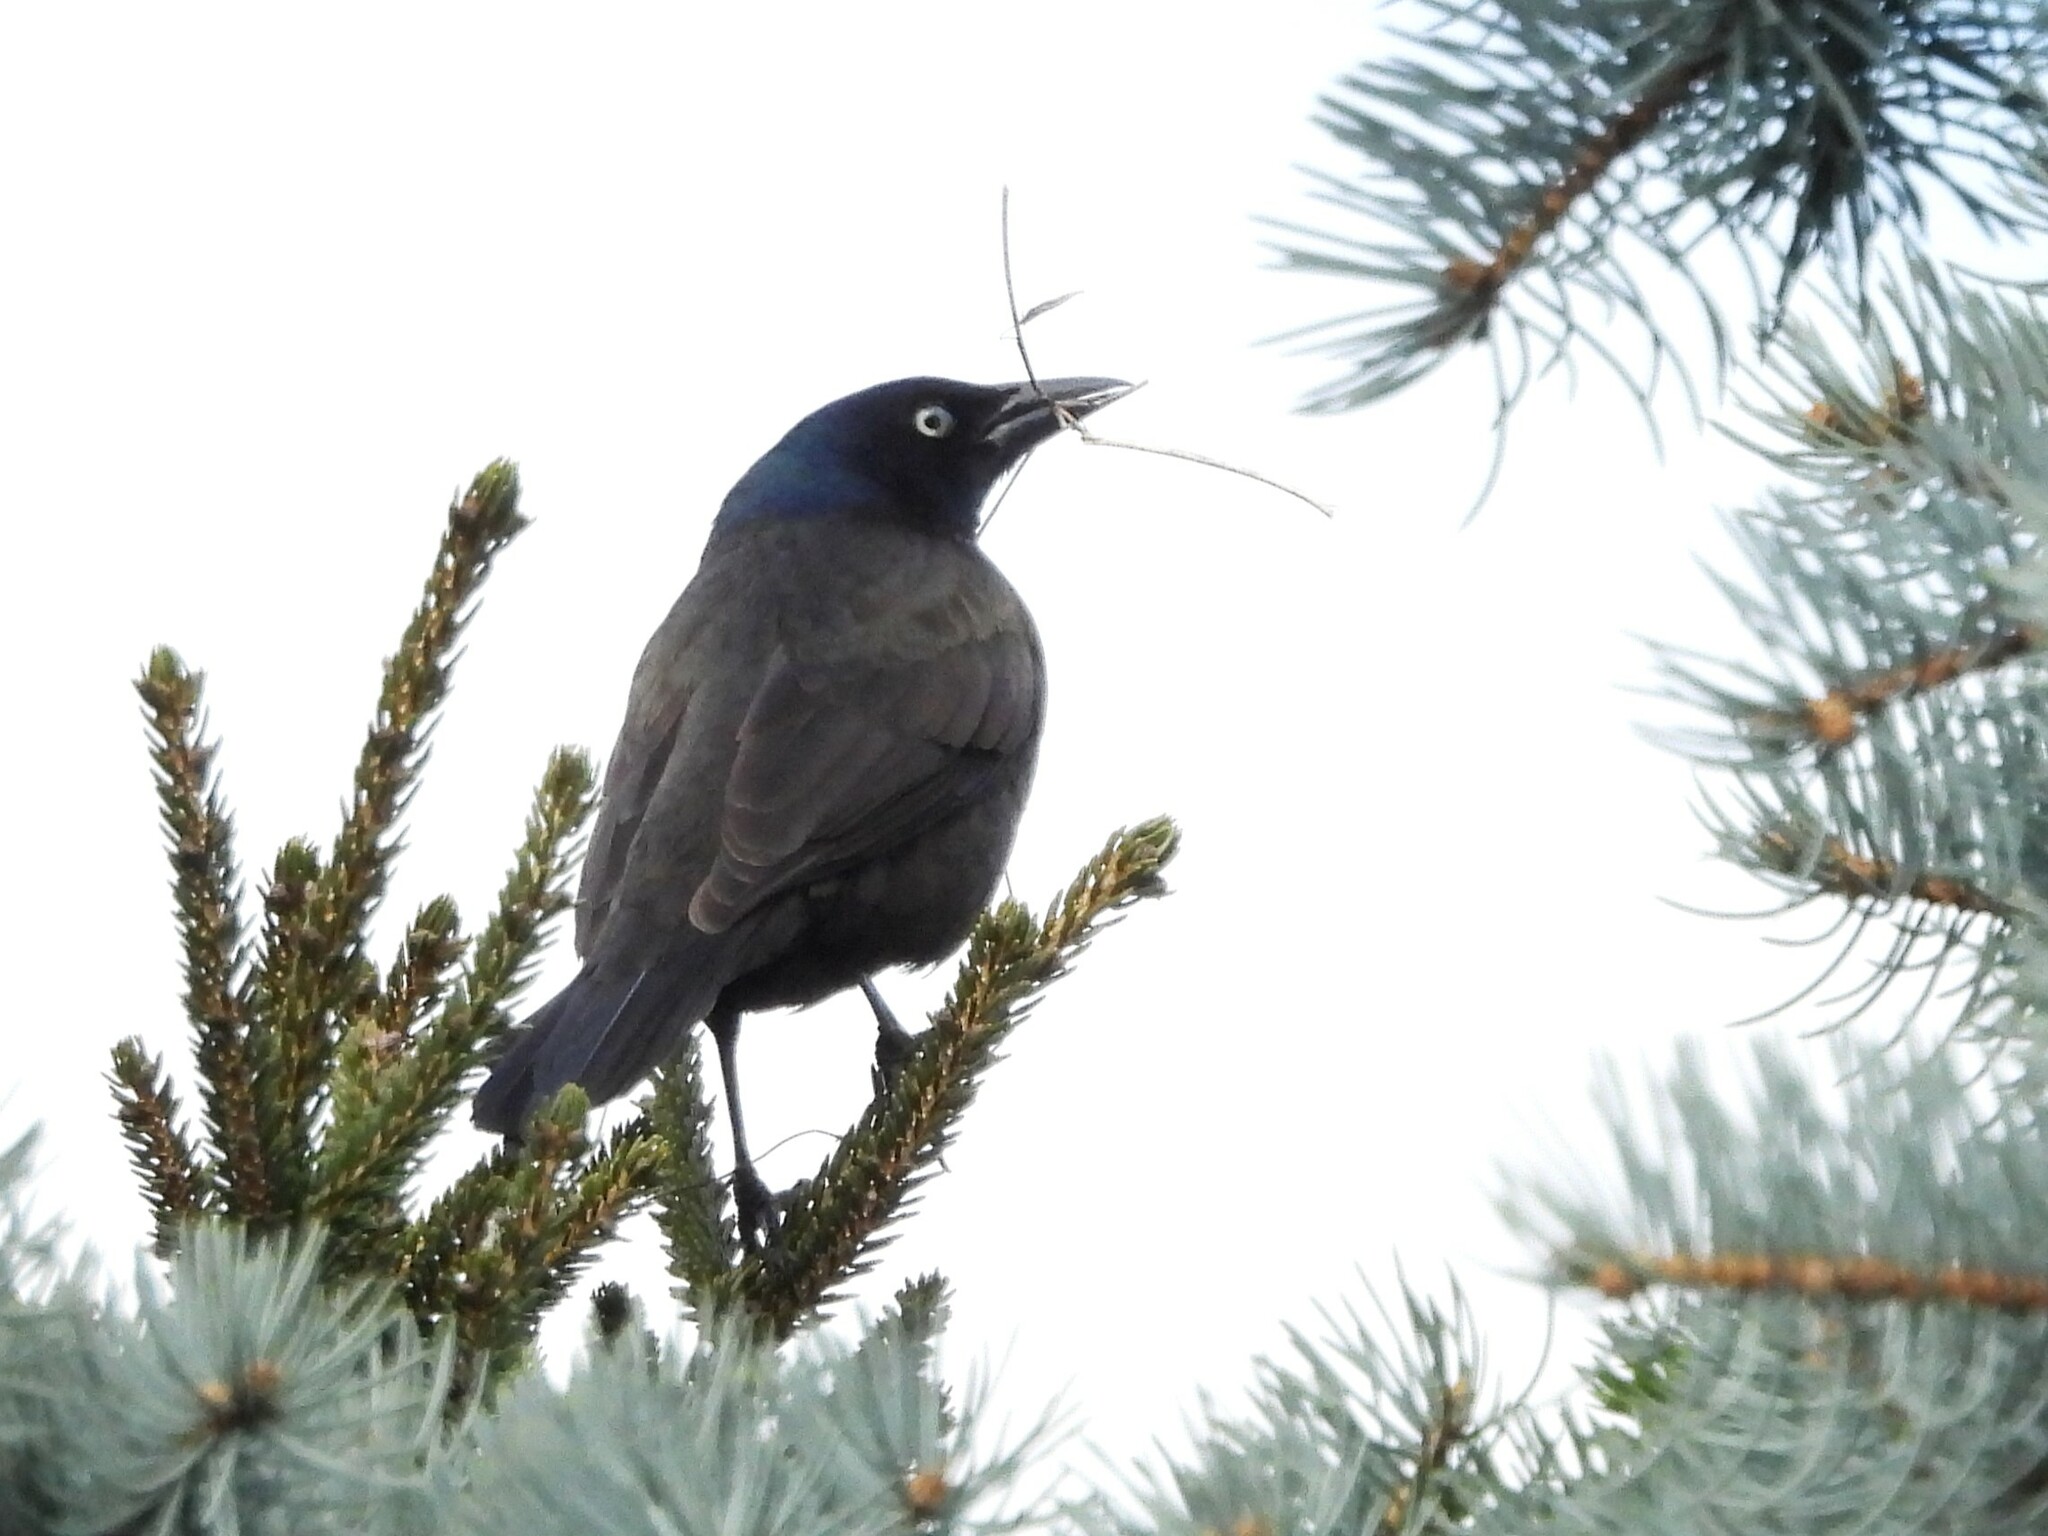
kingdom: Animalia
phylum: Chordata
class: Aves
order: Passeriformes
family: Icteridae
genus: Quiscalus
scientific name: Quiscalus quiscula
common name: Common grackle
